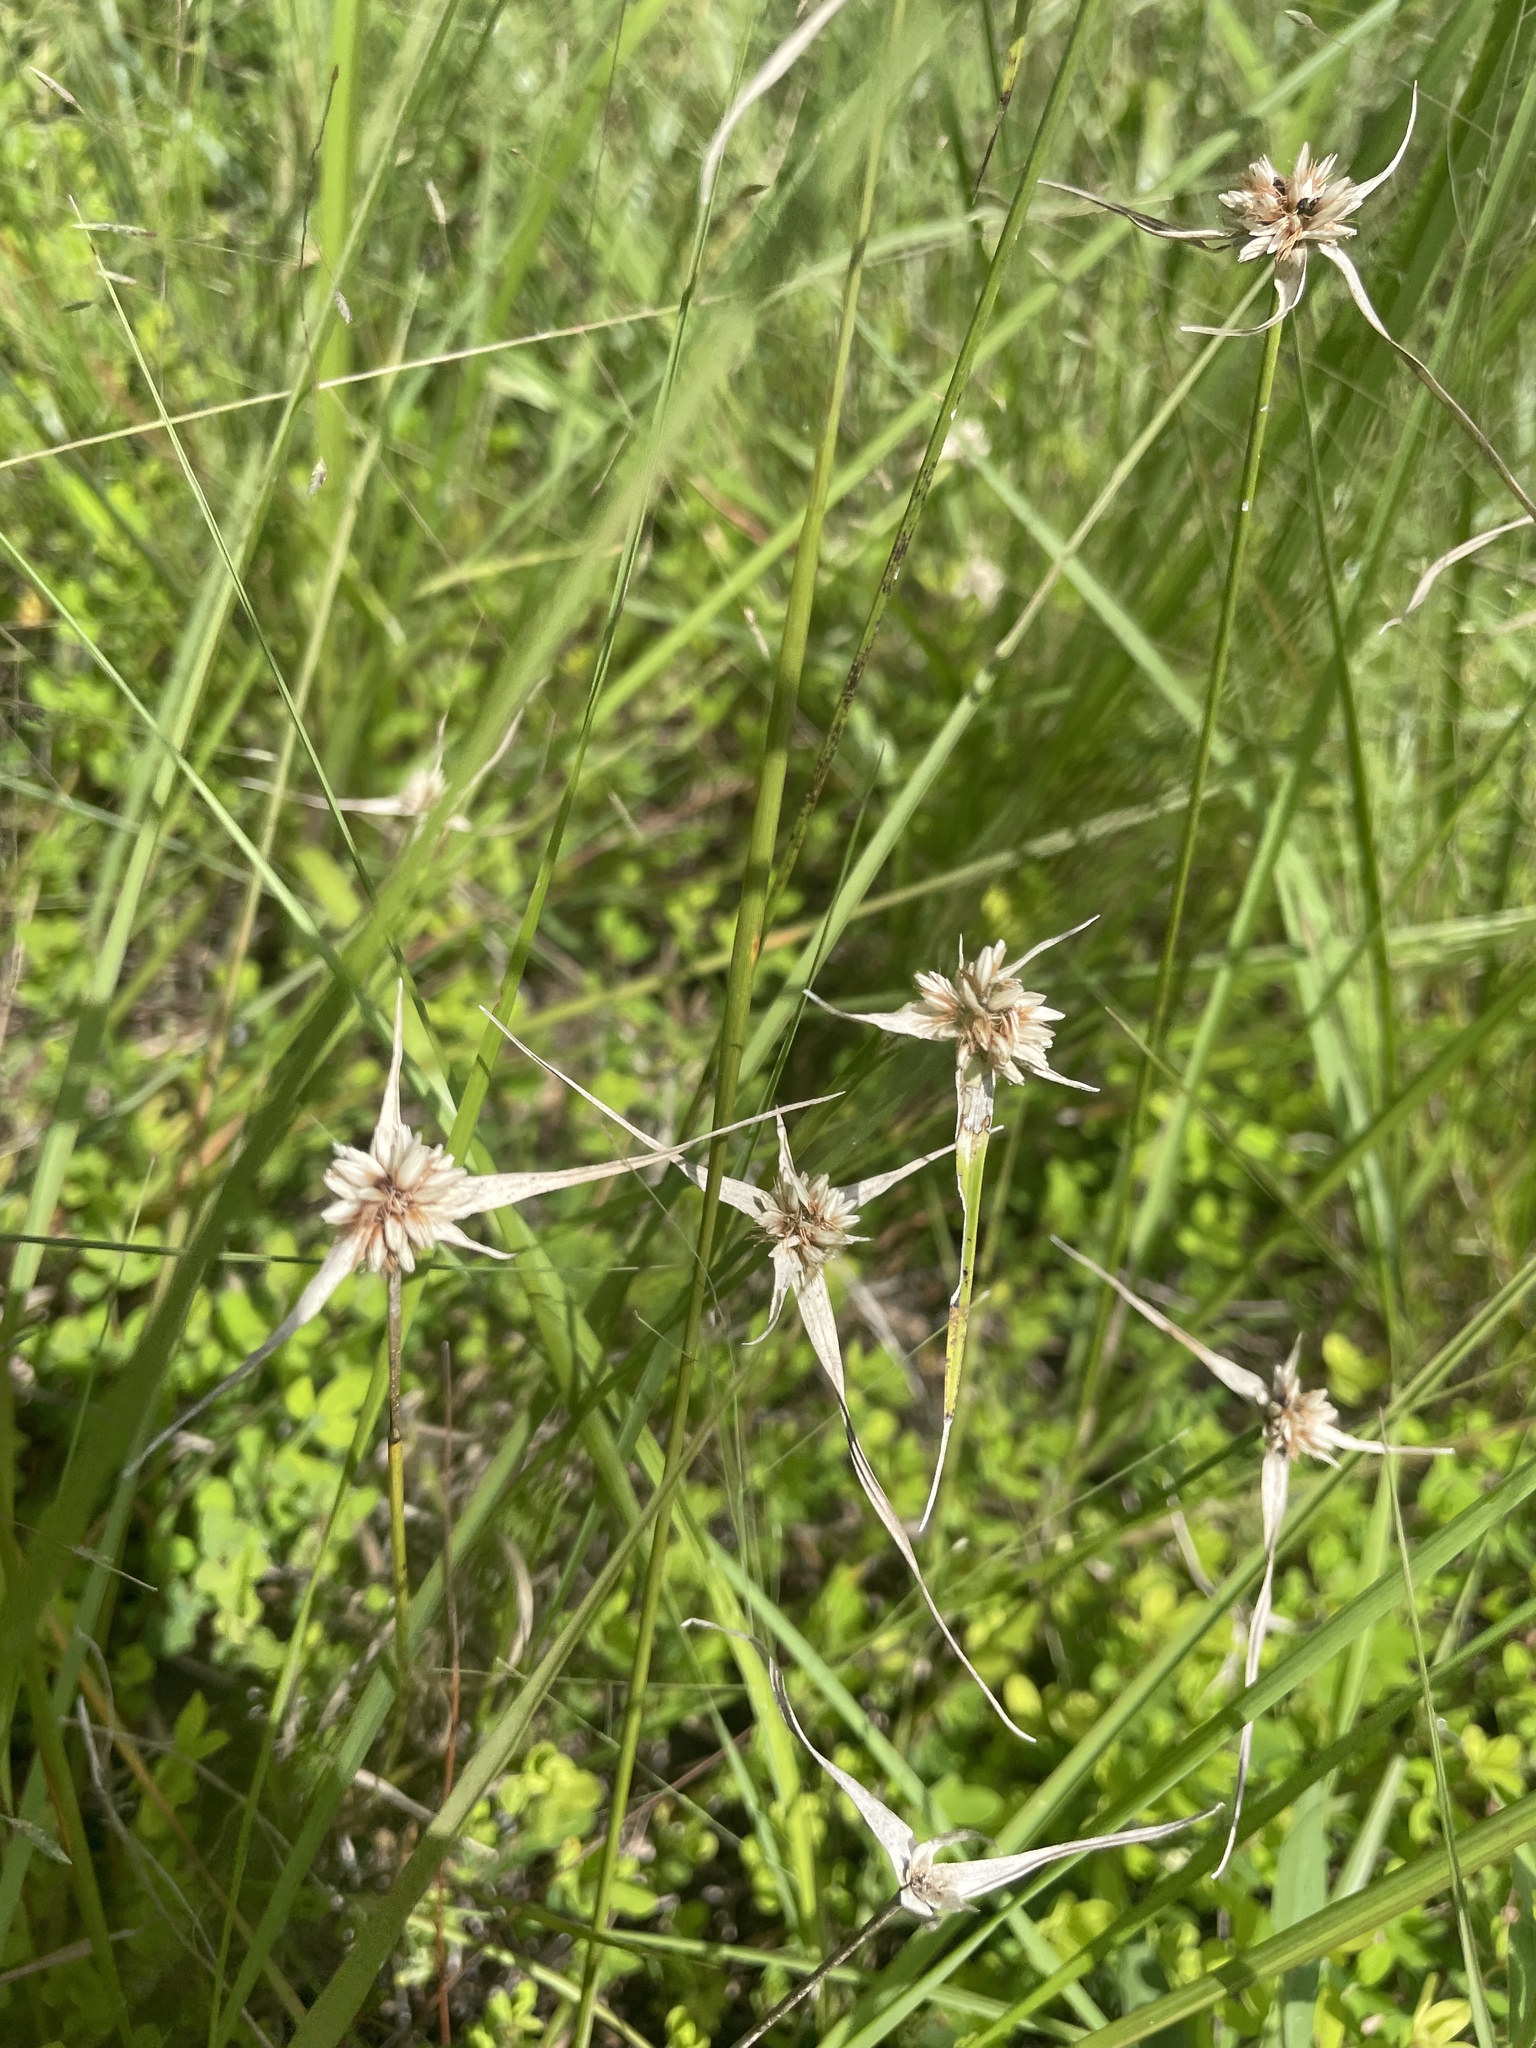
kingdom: Plantae
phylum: Tracheophyta
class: Liliopsida
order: Poales
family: Cyperaceae
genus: Rhynchospora
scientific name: Rhynchospora colorata
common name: Star sedge
